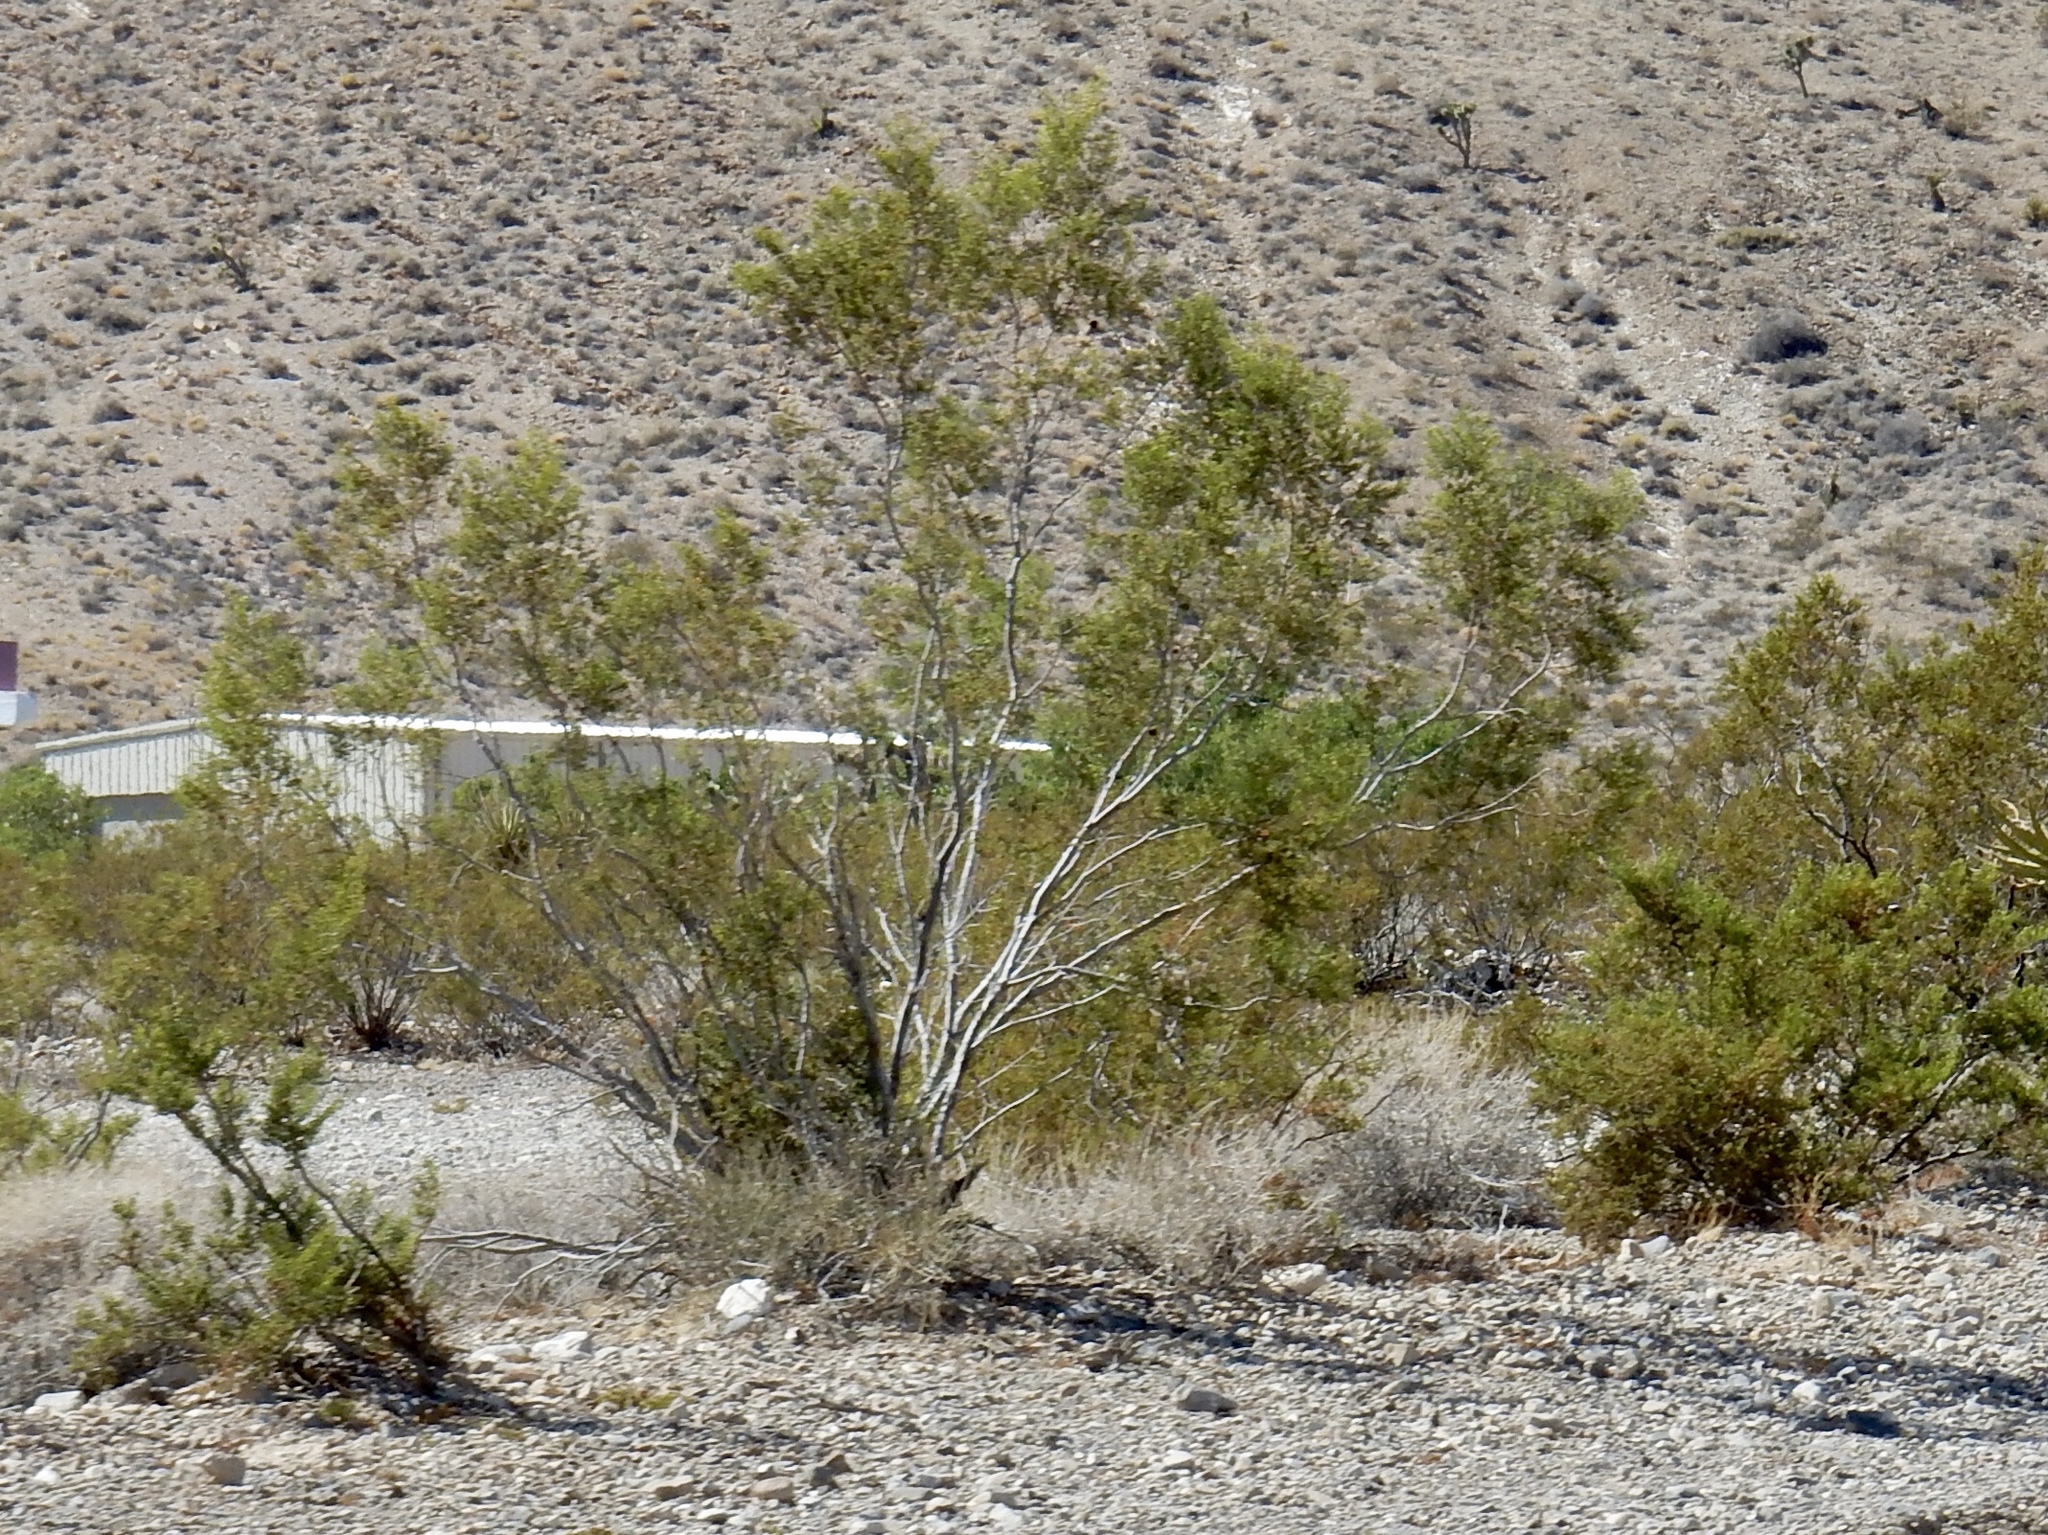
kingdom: Plantae
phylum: Tracheophyta
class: Magnoliopsida
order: Zygophyllales
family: Zygophyllaceae
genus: Larrea
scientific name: Larrea tridentata
